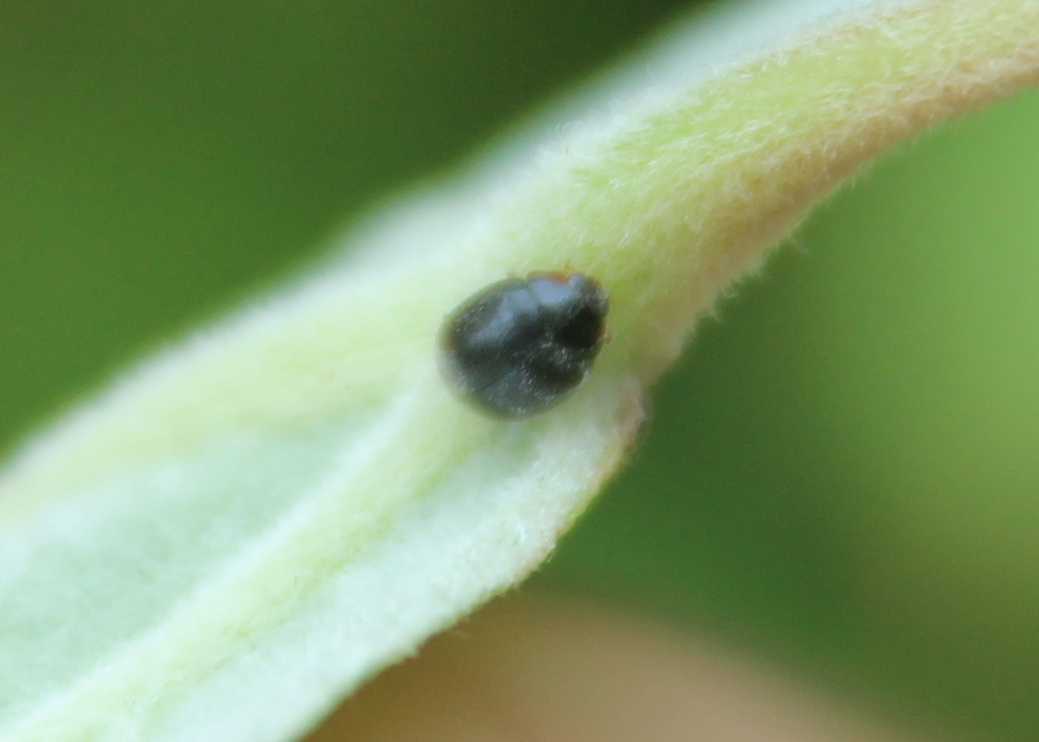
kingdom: Animalia
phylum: Arthropoda
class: Insecta
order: Coleoptera
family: Coccinellidae
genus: Scymnus
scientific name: Scymnus
